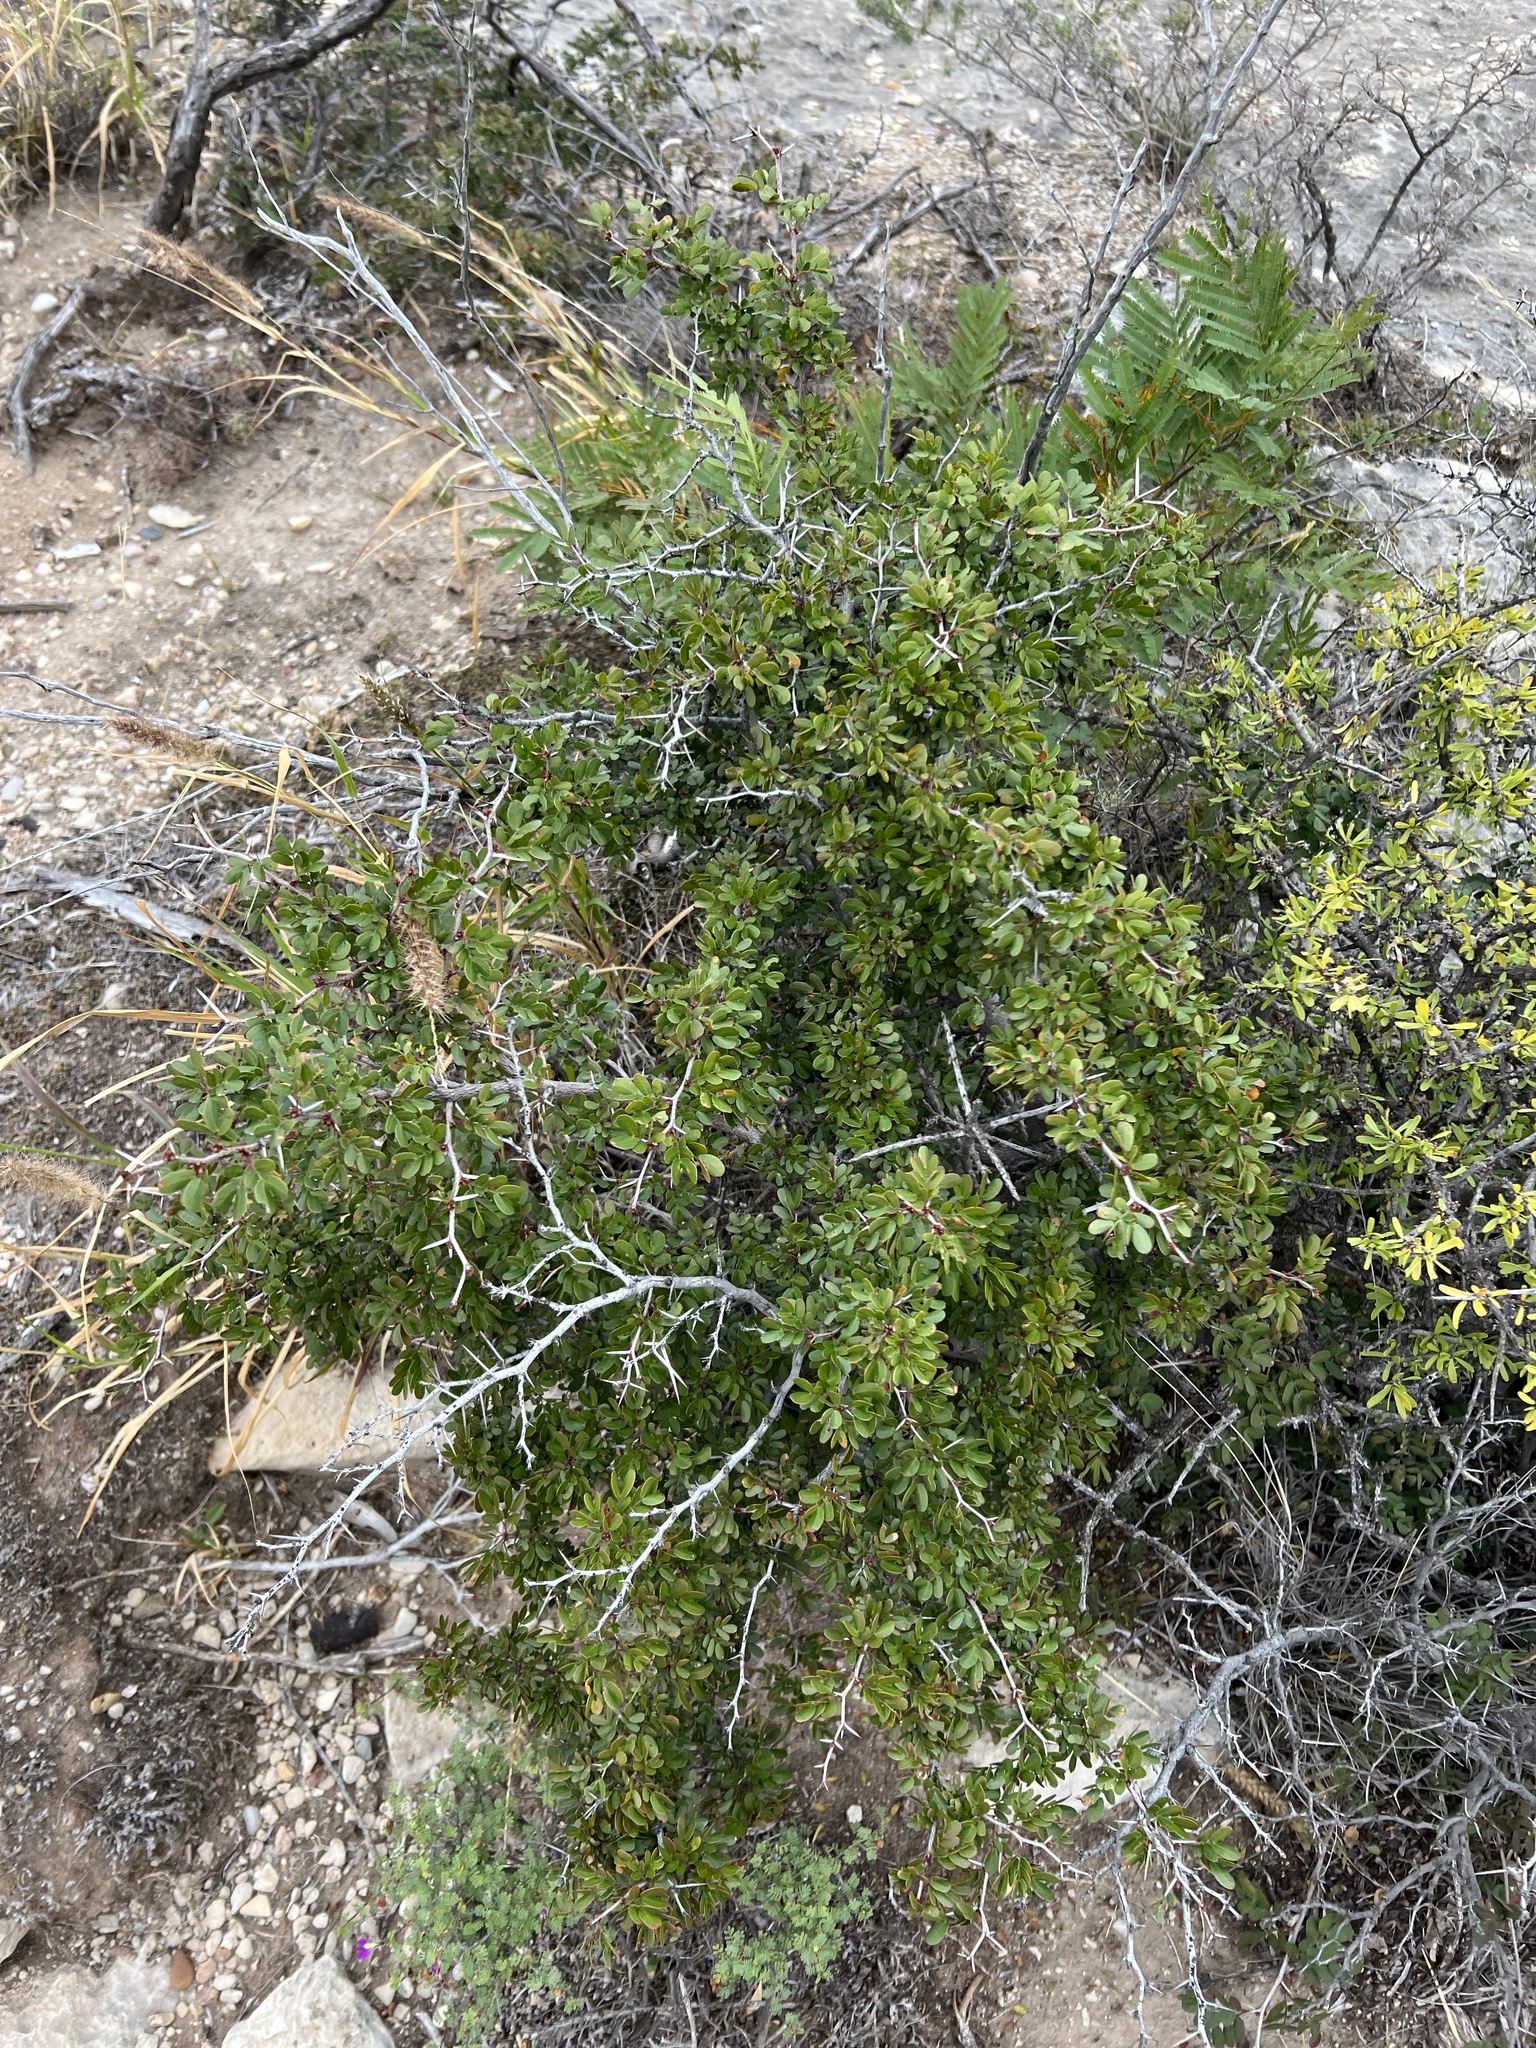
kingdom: Plantae
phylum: Tracheophyta
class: Magnoliopsida
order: Fabales
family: Fabaceae
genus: Vachellia
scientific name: Vachellia rigidula
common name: Blackbrush
